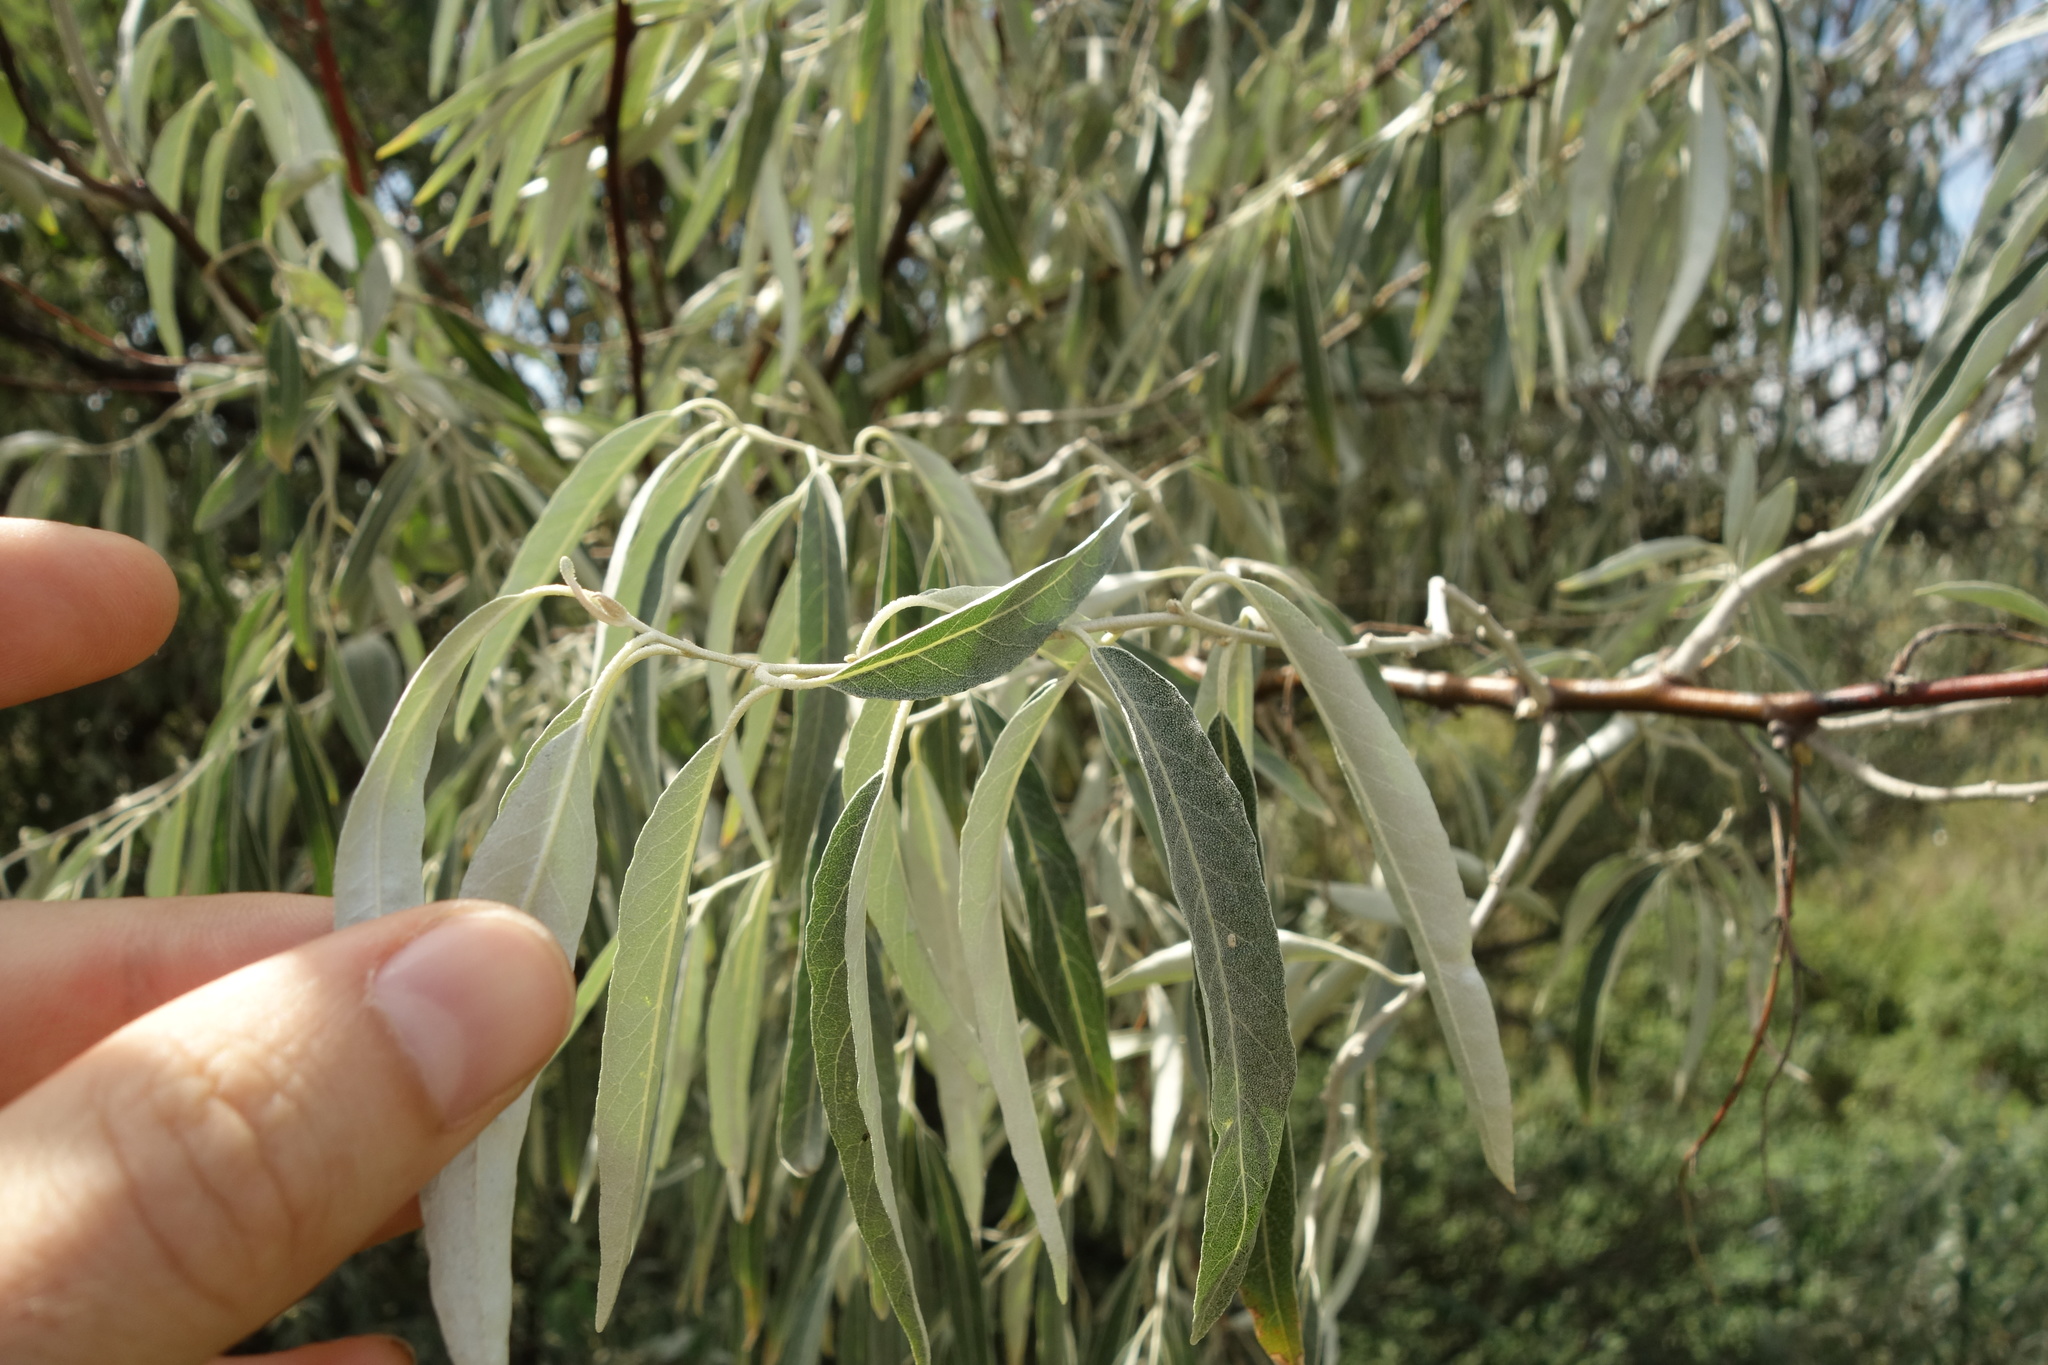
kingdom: Plantae
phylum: Tracheophyta
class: Magnoliopsida
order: Rosales
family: Elaeagnaceae
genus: Elaeagnus
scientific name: Elaeagnus angustifolia
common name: Russian olive
